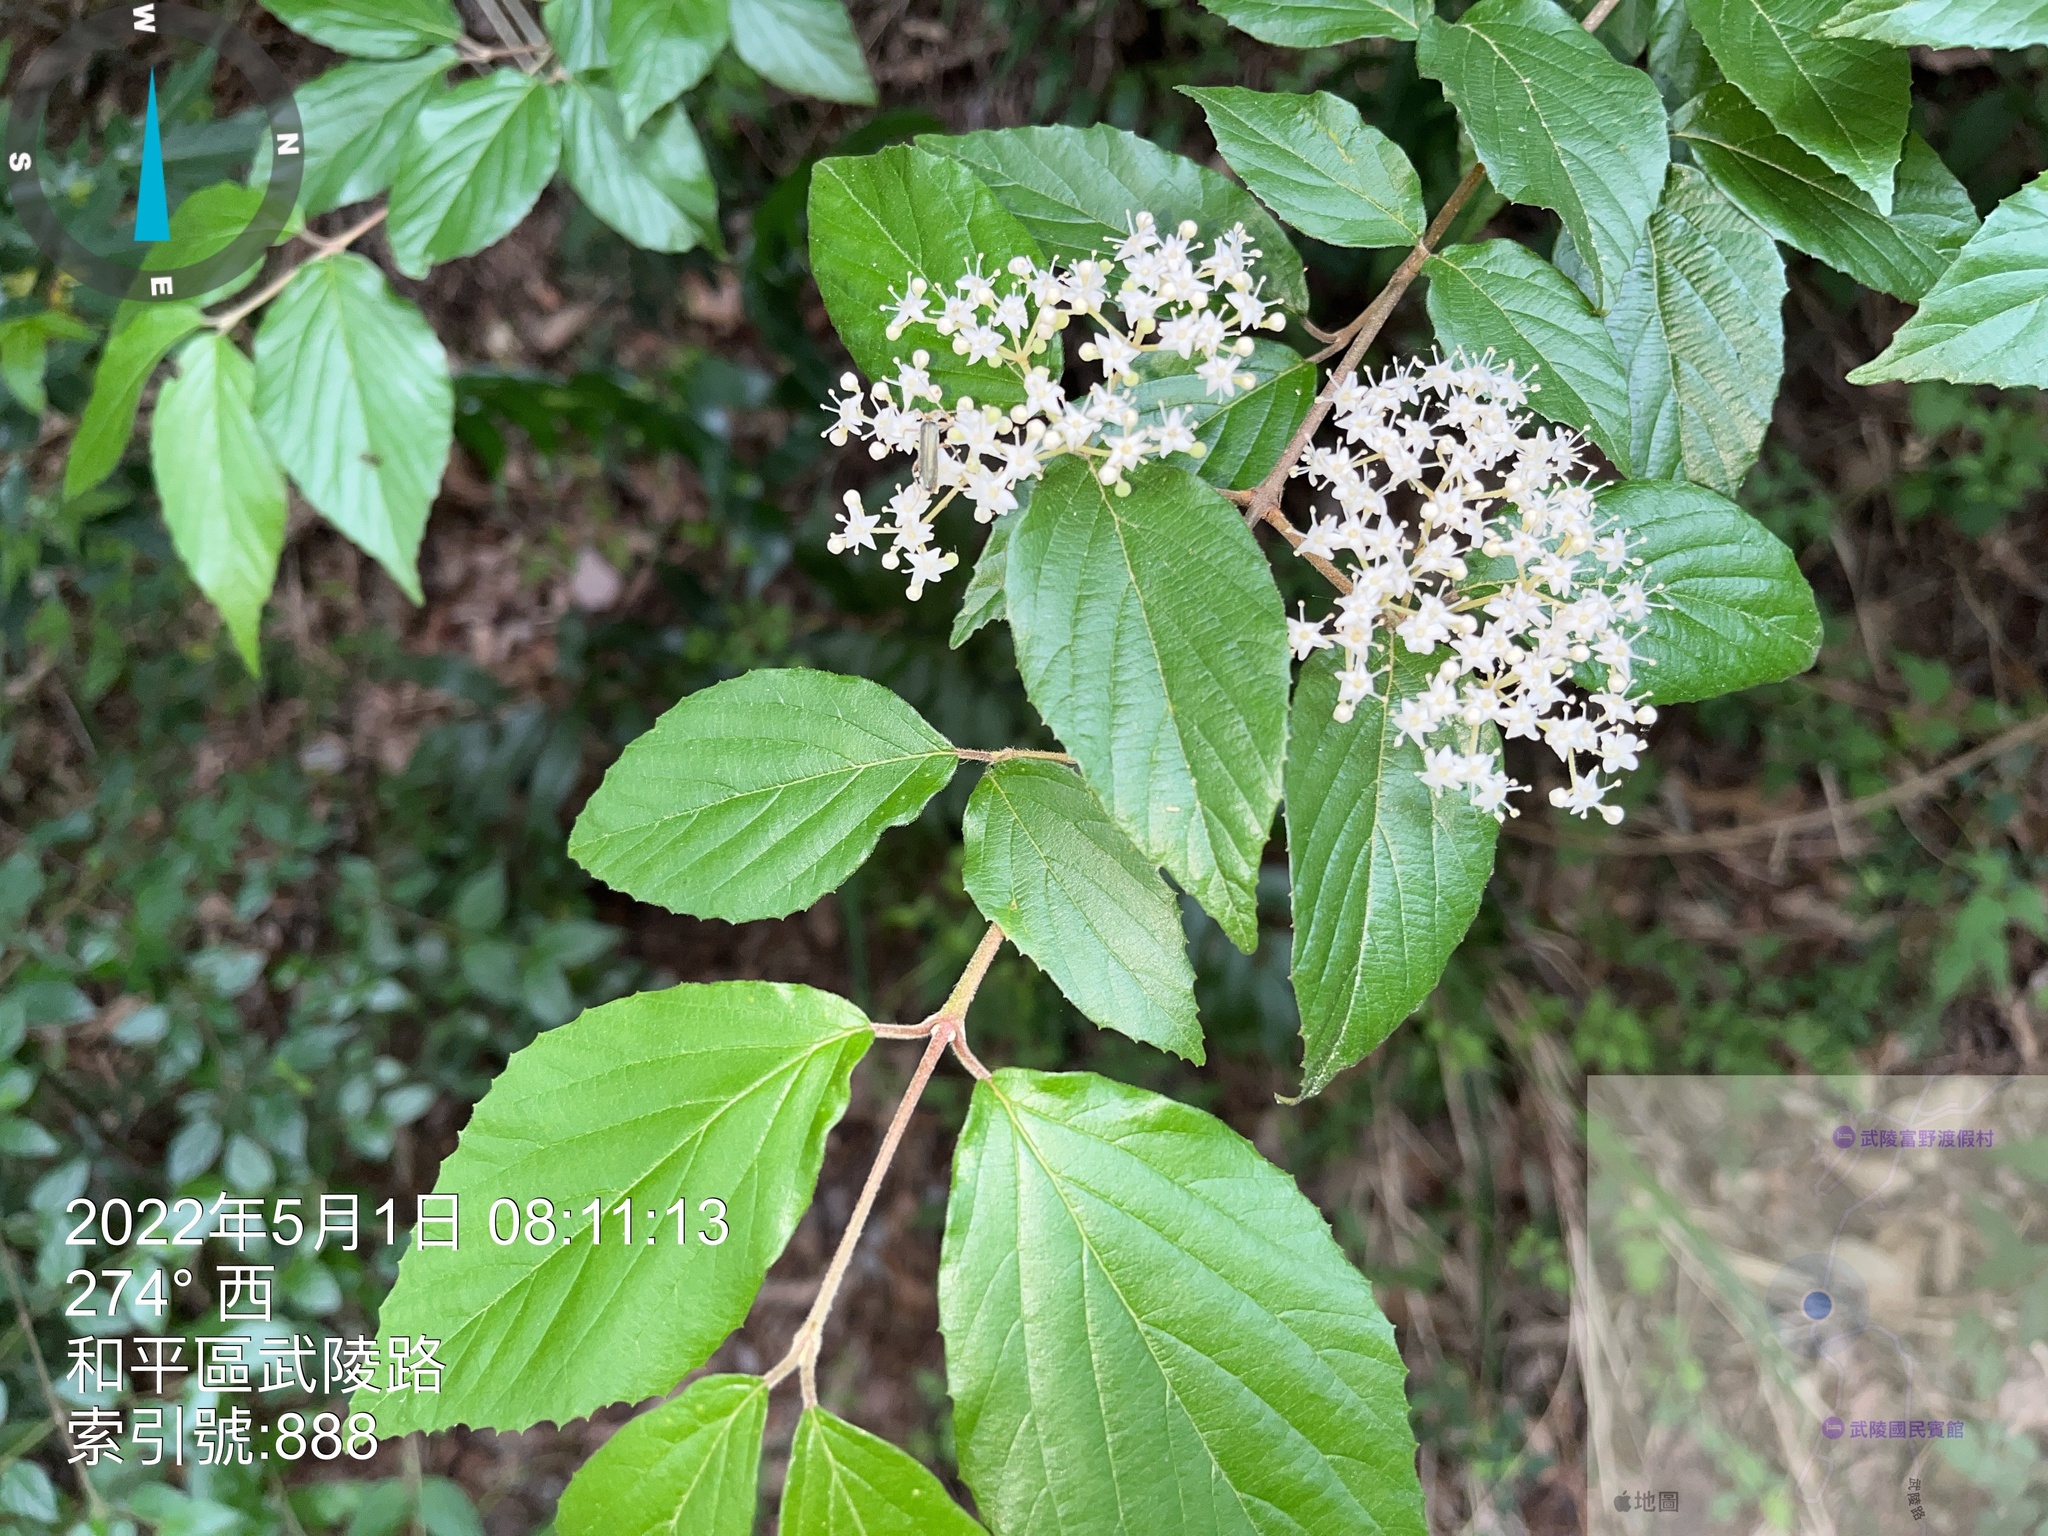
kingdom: Plantae
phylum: Tracheophyta
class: Magnoliopsida
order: Dipsacales
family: Viburnaceae
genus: Viburnum
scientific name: Viburnum luzonicum
